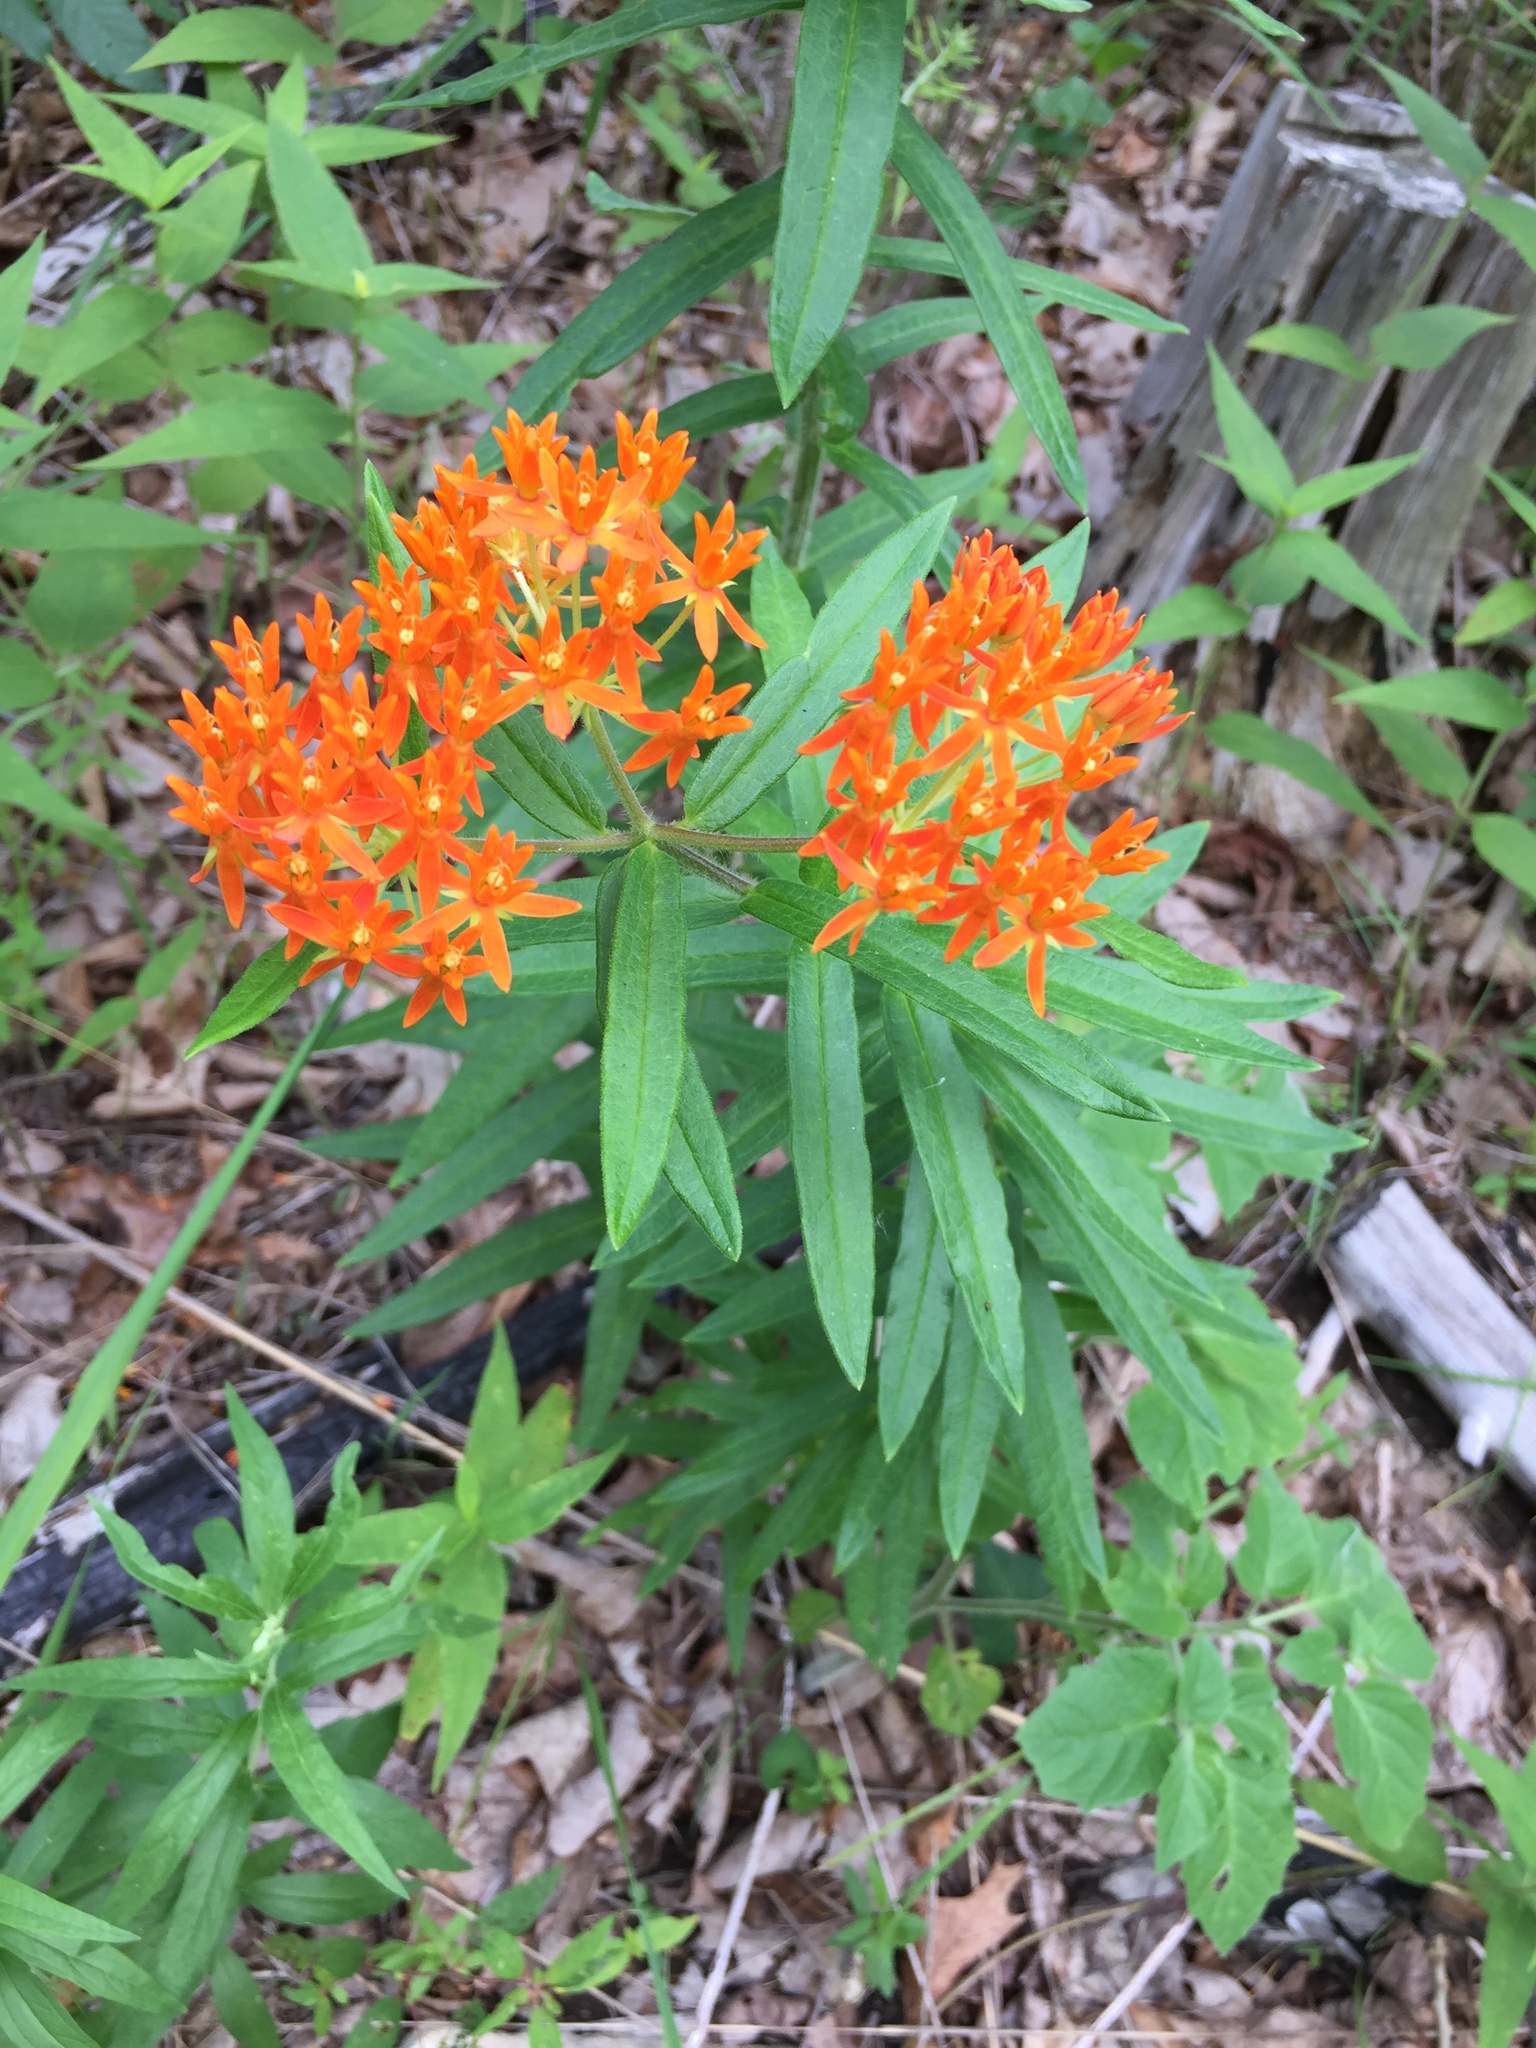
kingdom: Plantae
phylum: Tracheophyta
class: Magnoliopsida
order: Gentianales
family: Apocynaceae
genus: Asclepias
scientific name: Asclepias tuberosa
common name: Butterfly milkweed
